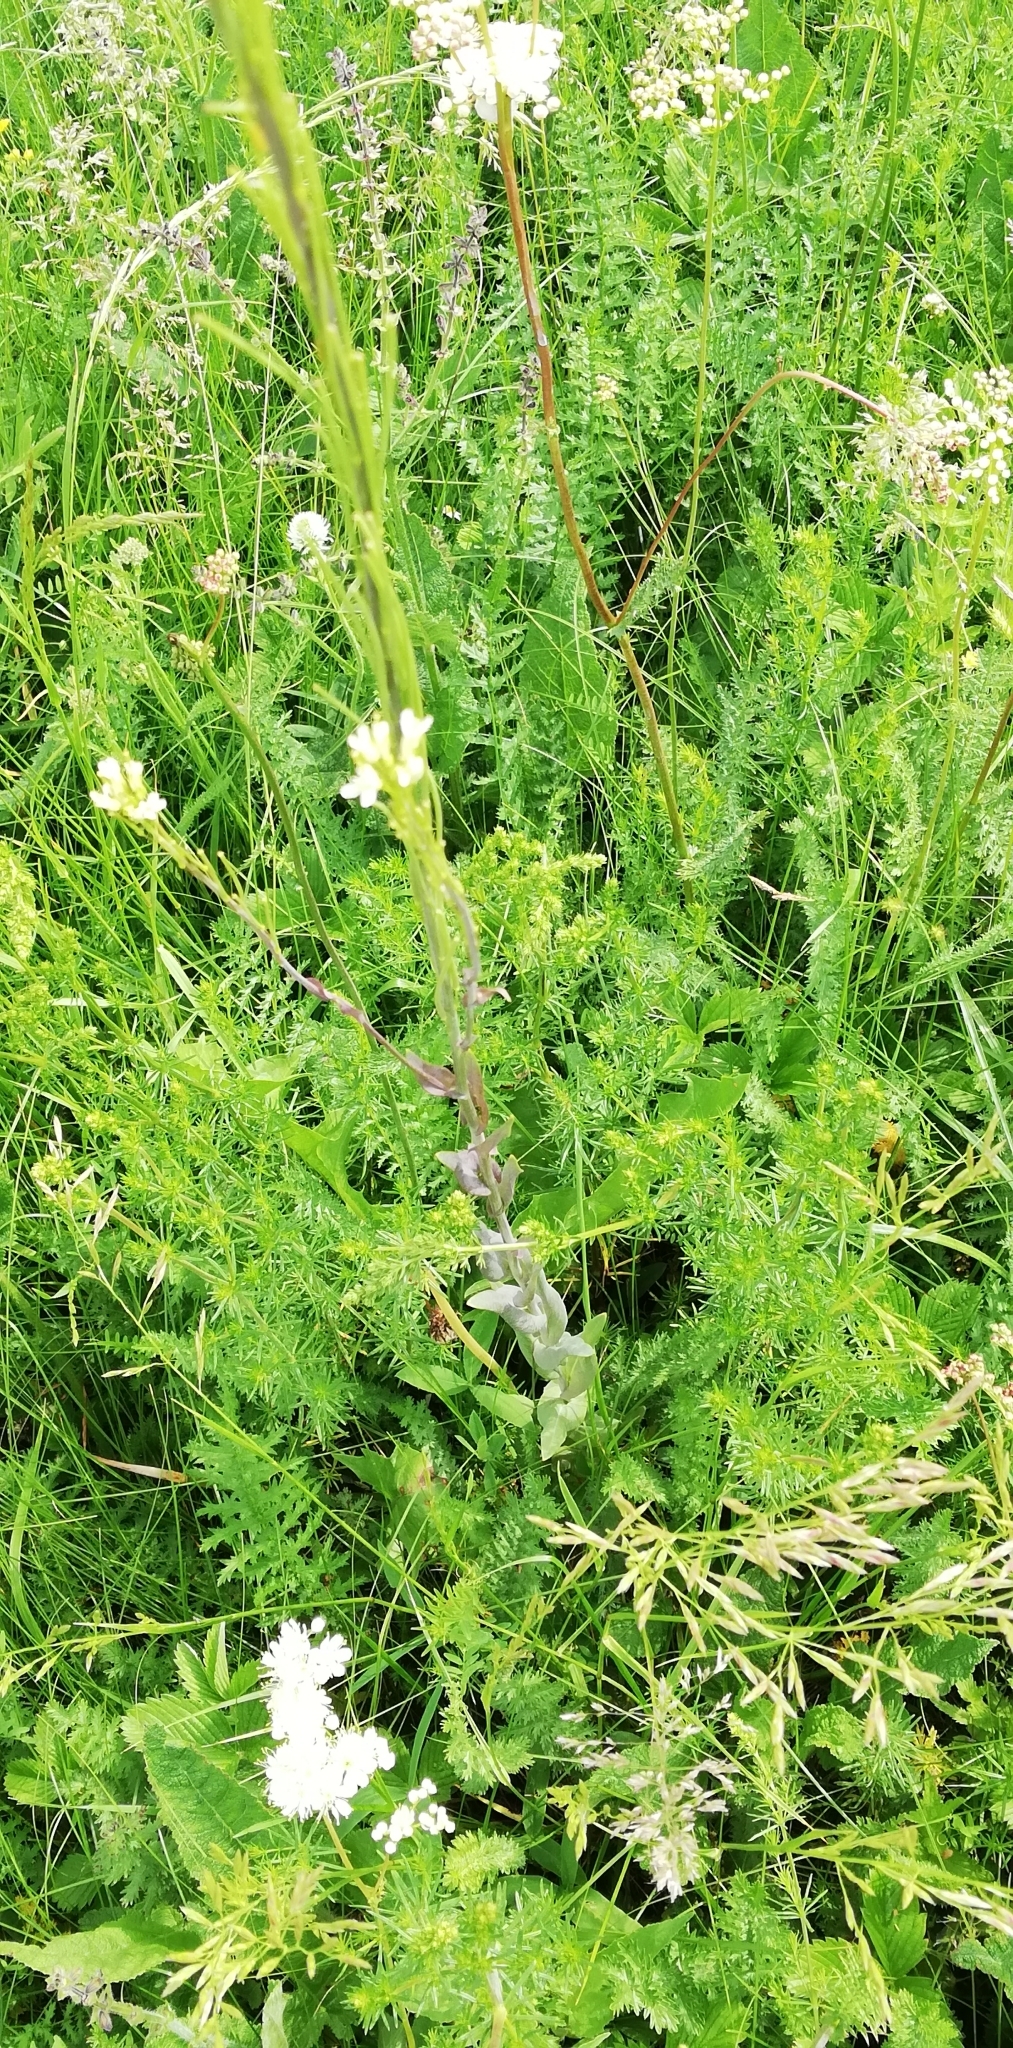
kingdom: Plantae
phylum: Tracheophyta
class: Magnoliopsida
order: Brassicales
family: Brassicaceae
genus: Turritis
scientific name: Turritis glabra
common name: Tower rockcress
